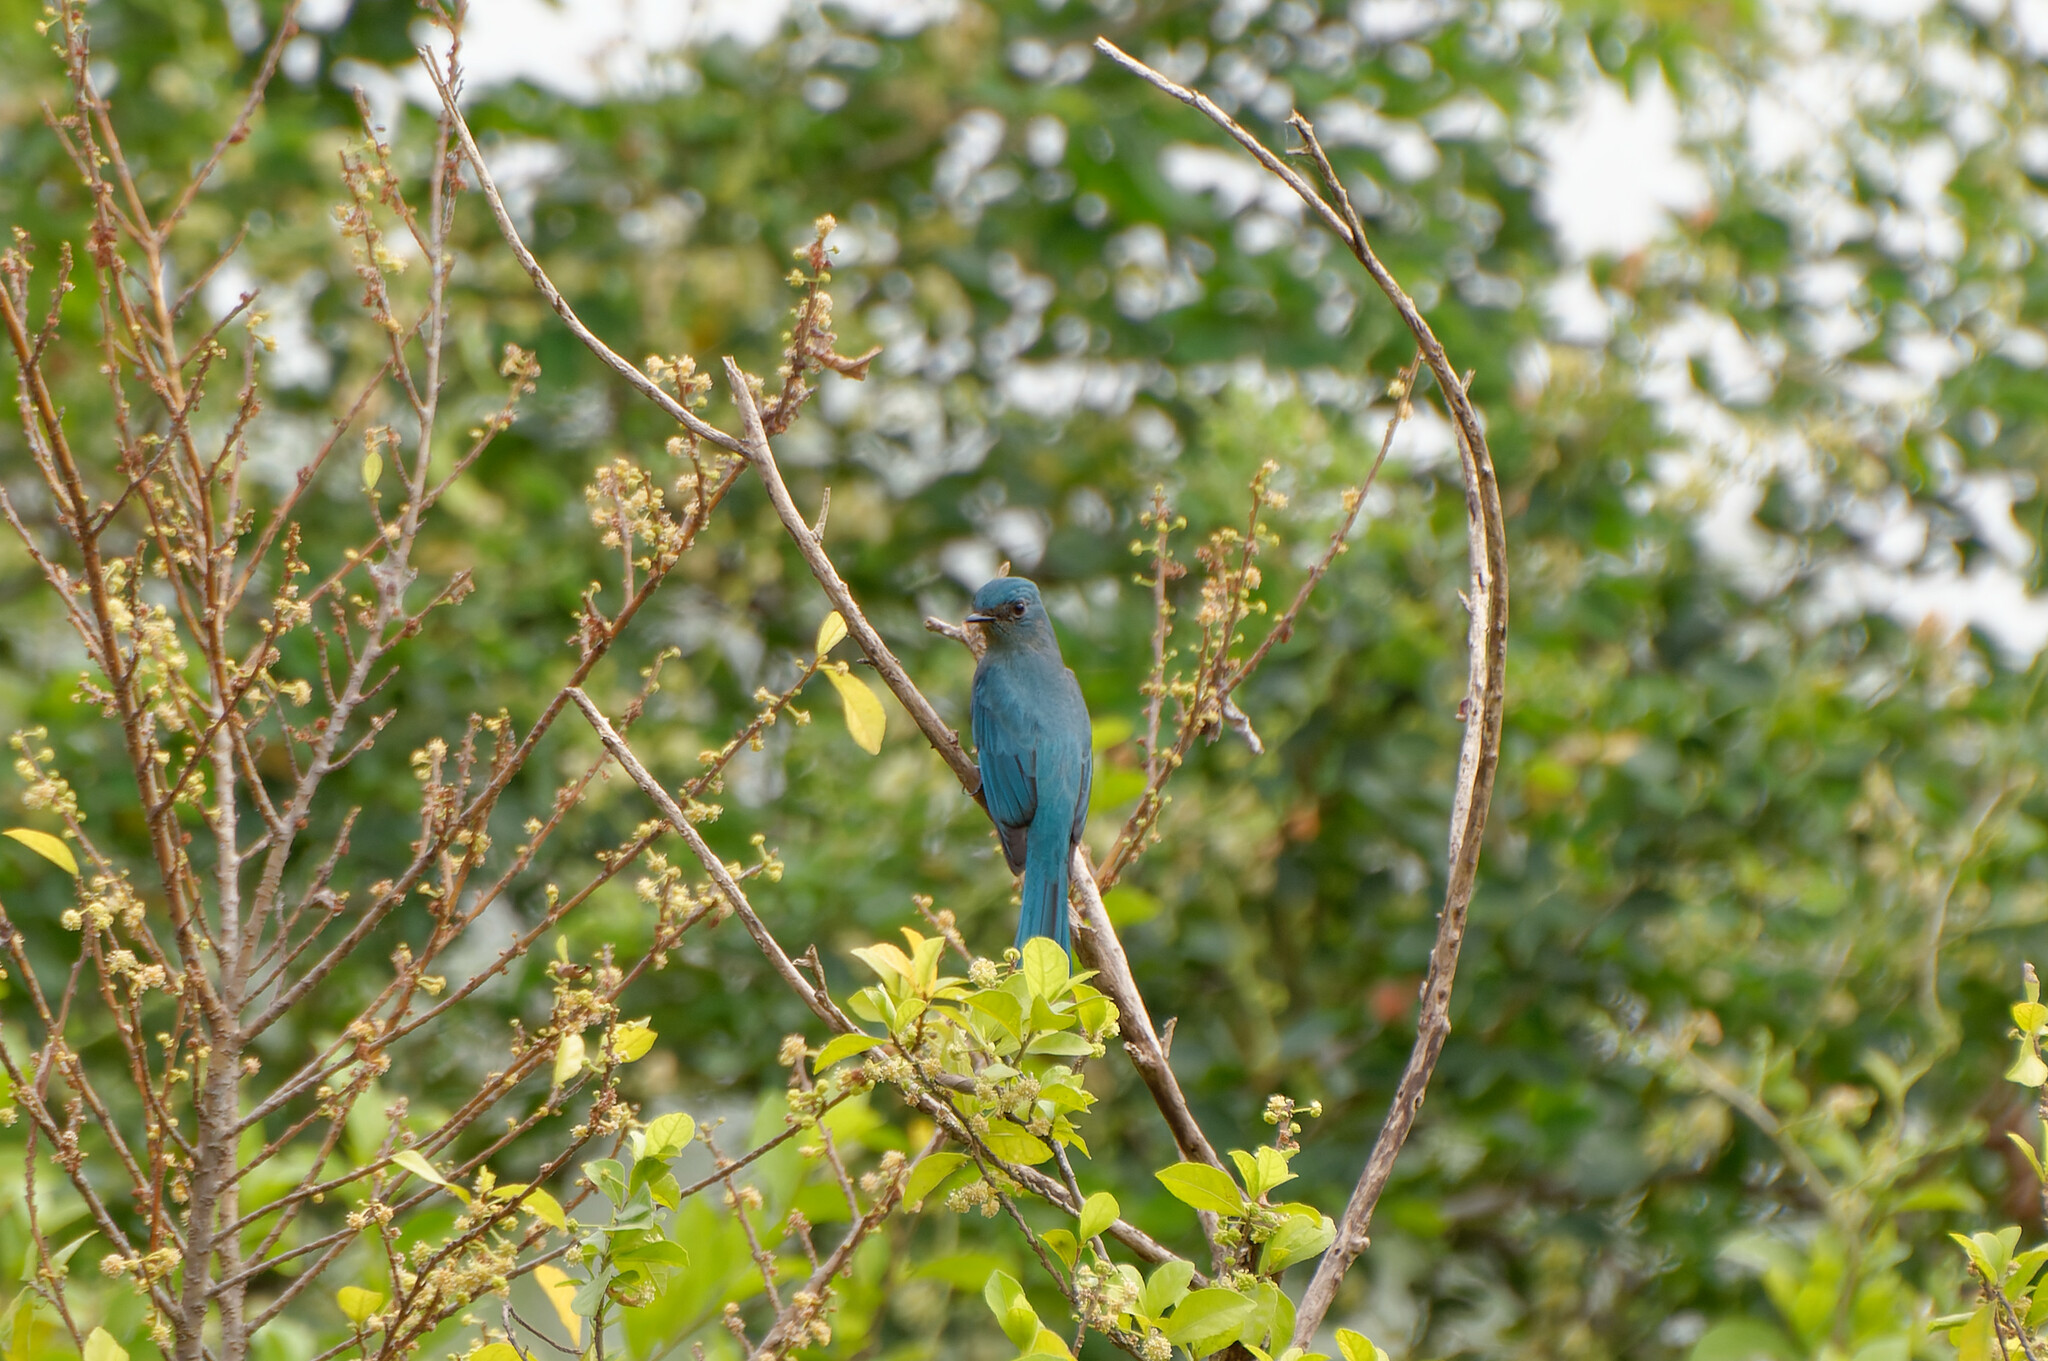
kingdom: Animalia
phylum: Chordata
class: Aves
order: Passeriformes
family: Muscicapidae
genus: Eumyias
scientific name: Eumyias thalassinus
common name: Verditer flycatcher
